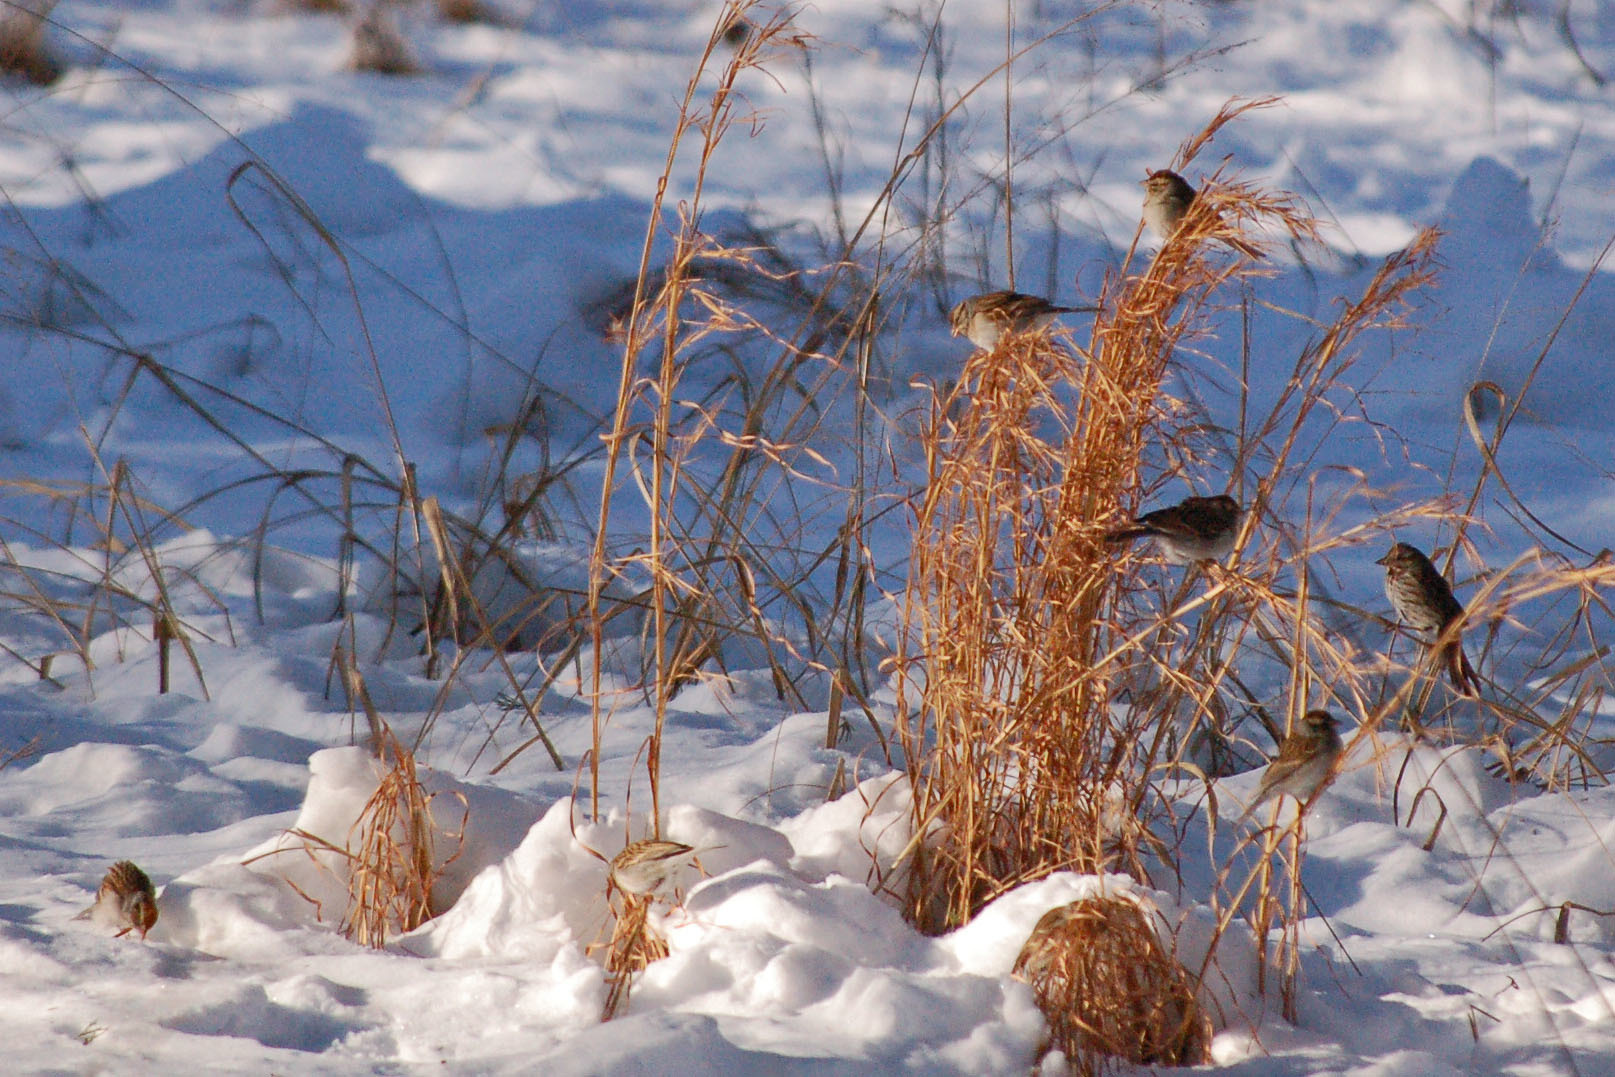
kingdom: Animalia
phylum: Chordata
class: Aves
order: Passeriformes
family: Passerellidae
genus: Spizella
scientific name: Spizella passerina
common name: Chipping sparrow
